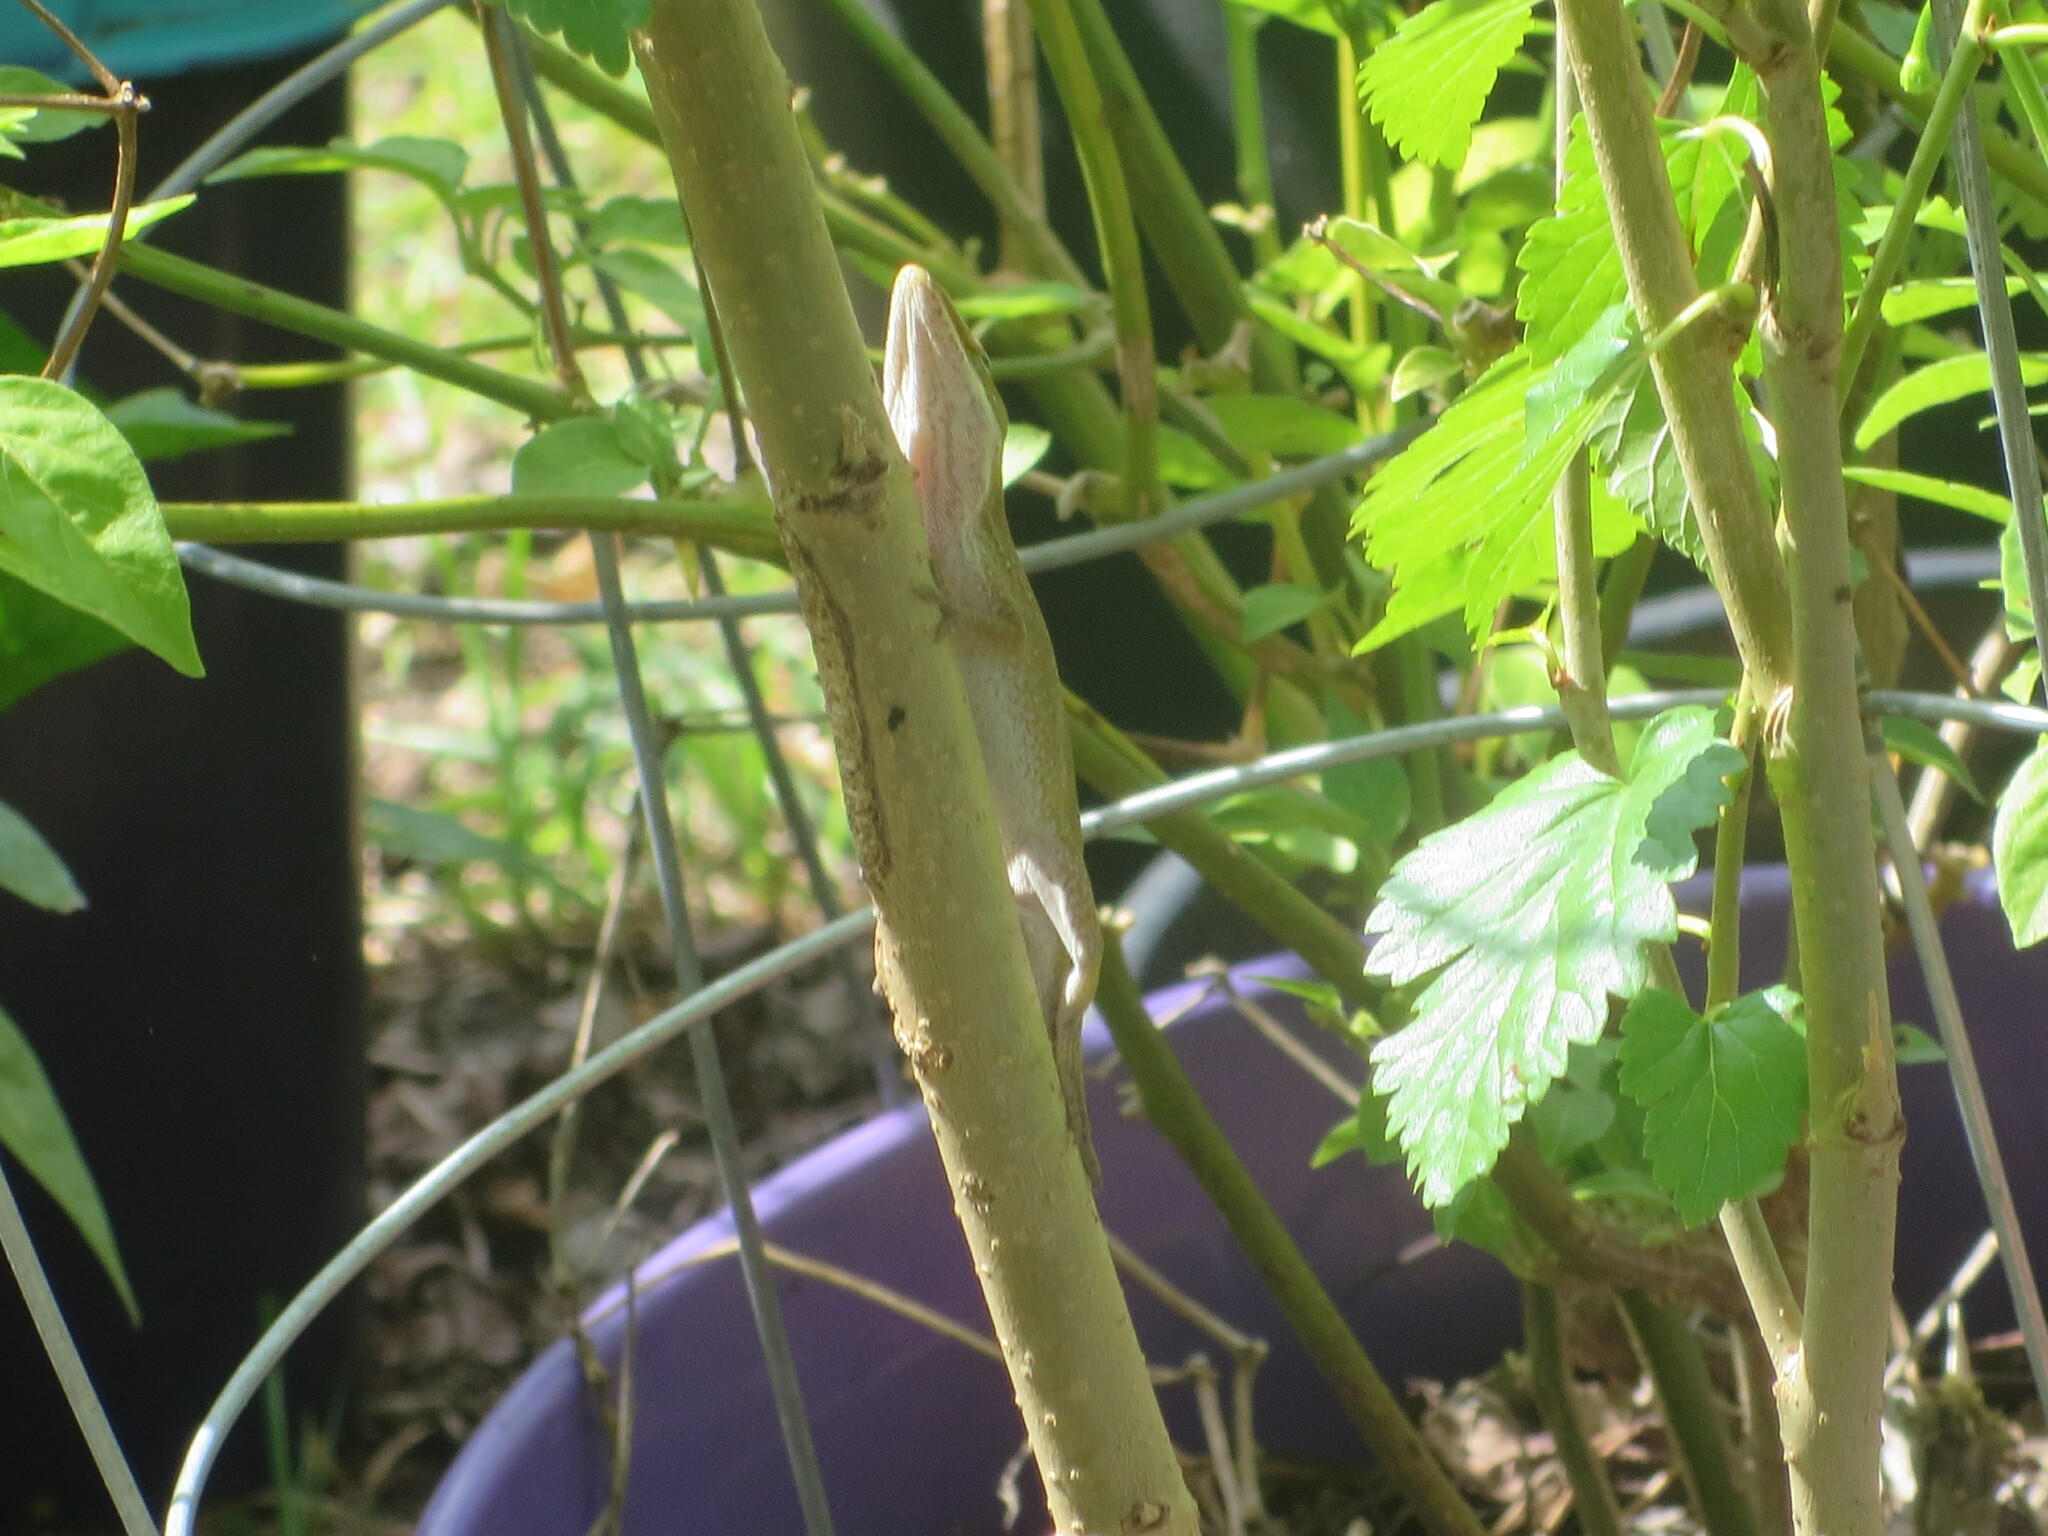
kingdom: Animalia
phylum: Chordata
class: Squamata
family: Dactyloidae
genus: Anolis
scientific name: Anolis carolinensis
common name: Green anole
